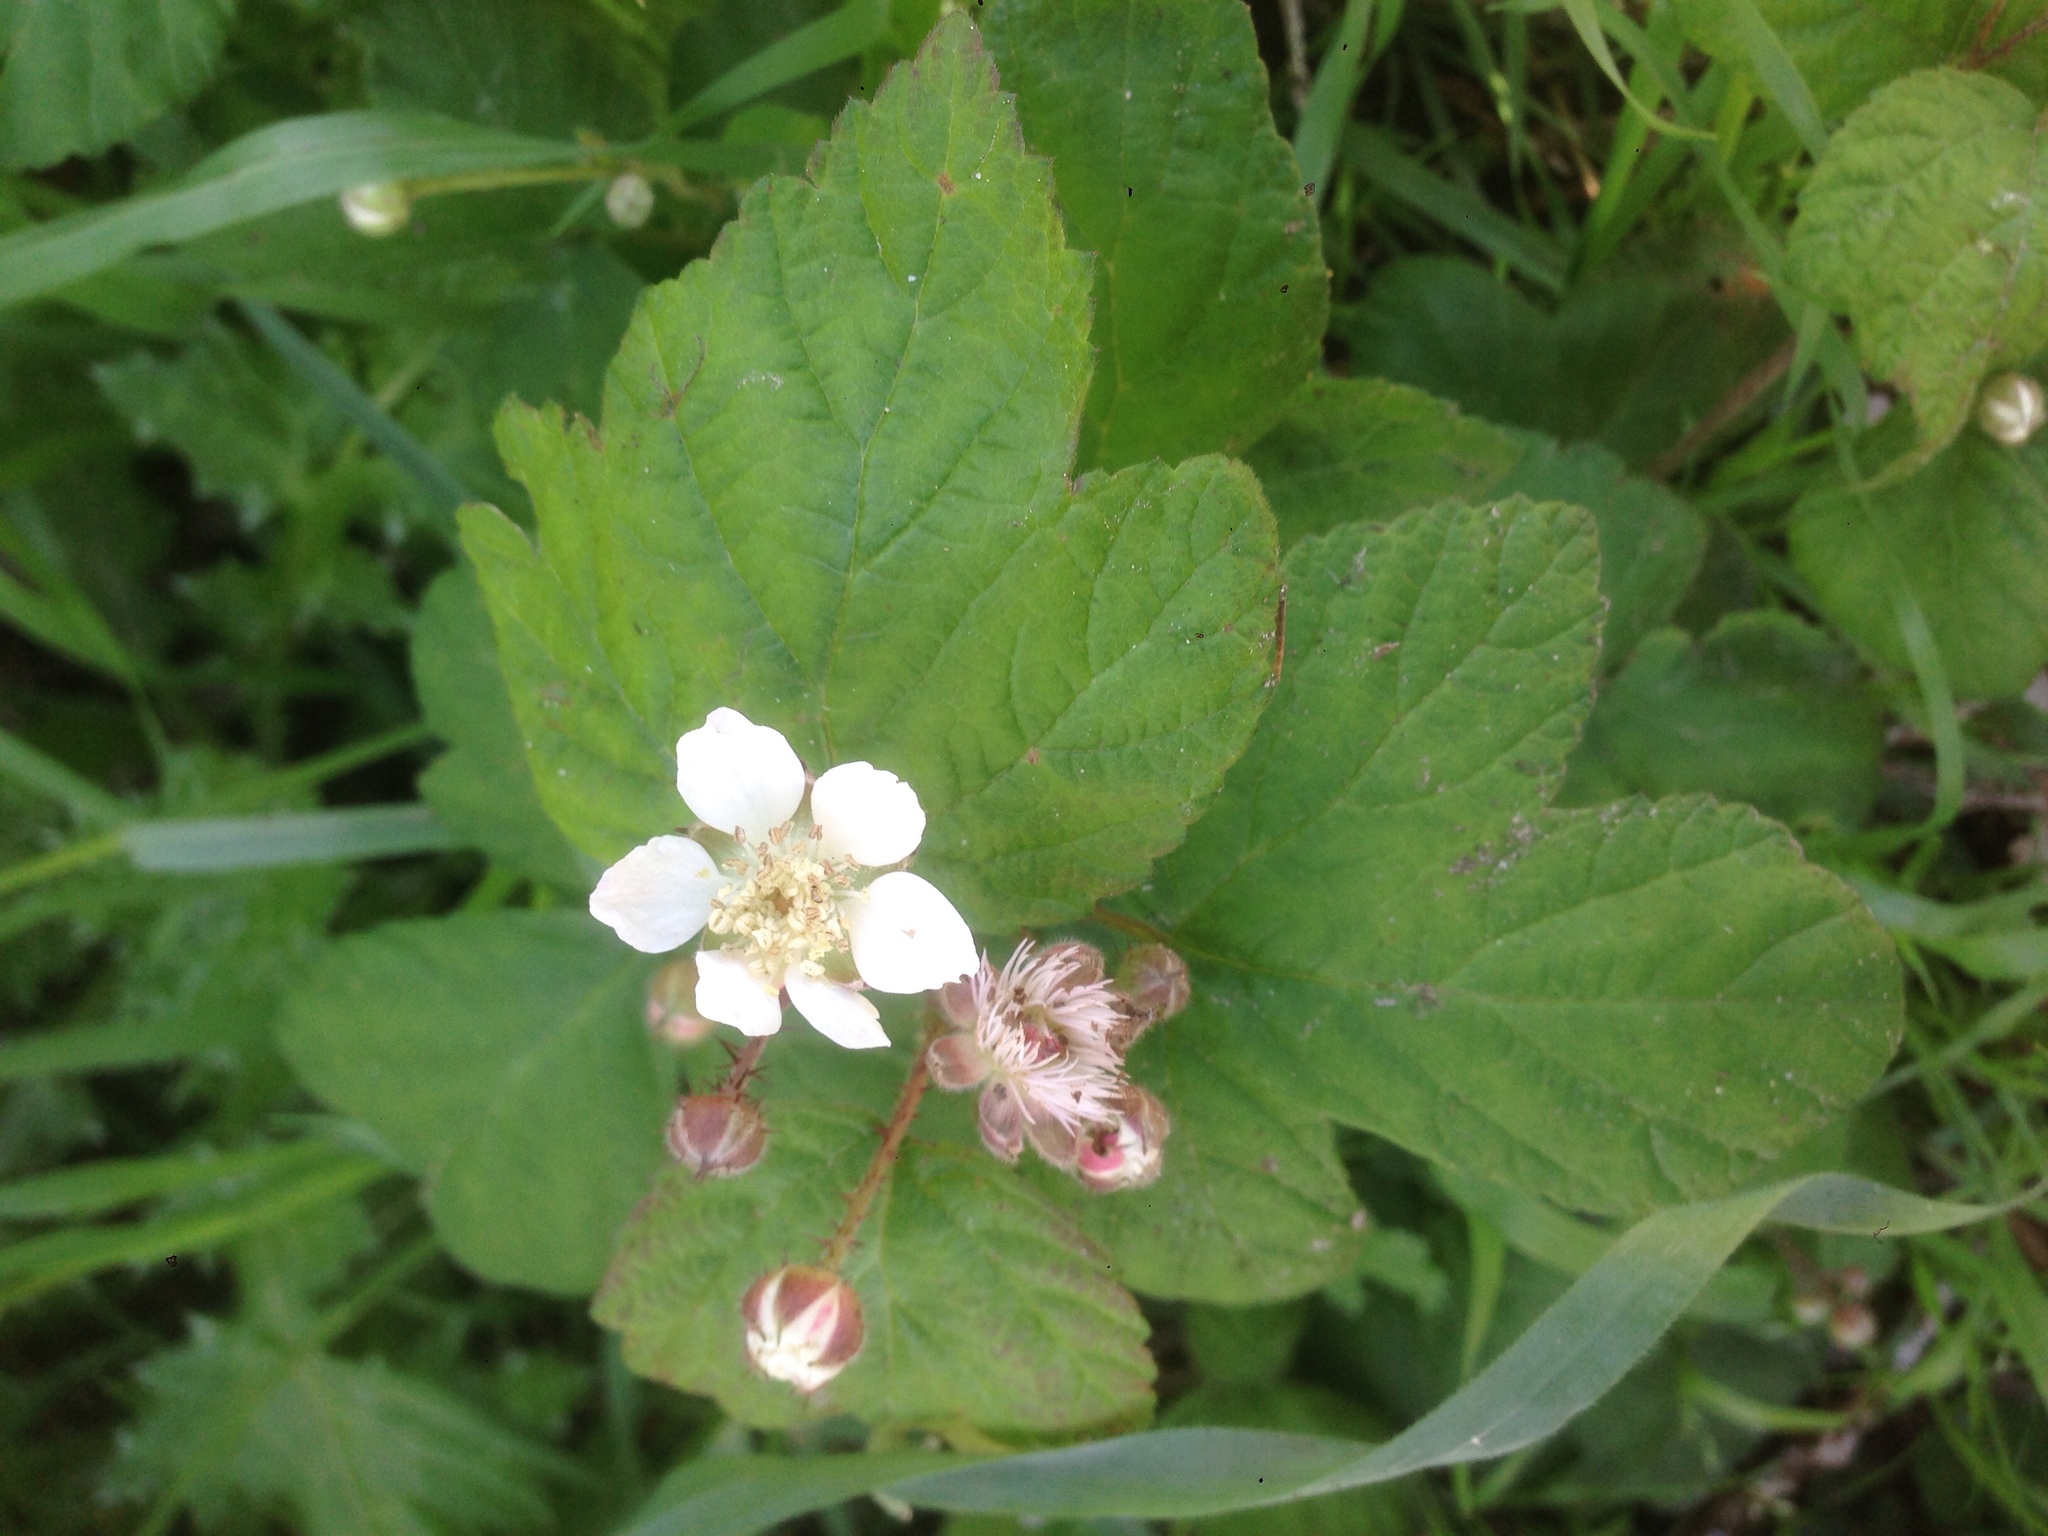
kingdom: Plantae
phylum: Tracheophyta
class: Magnoliopsida
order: Rosales
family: Rosaceae
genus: Rubus
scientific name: Rubus ursinus
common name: Pacific blackberry
